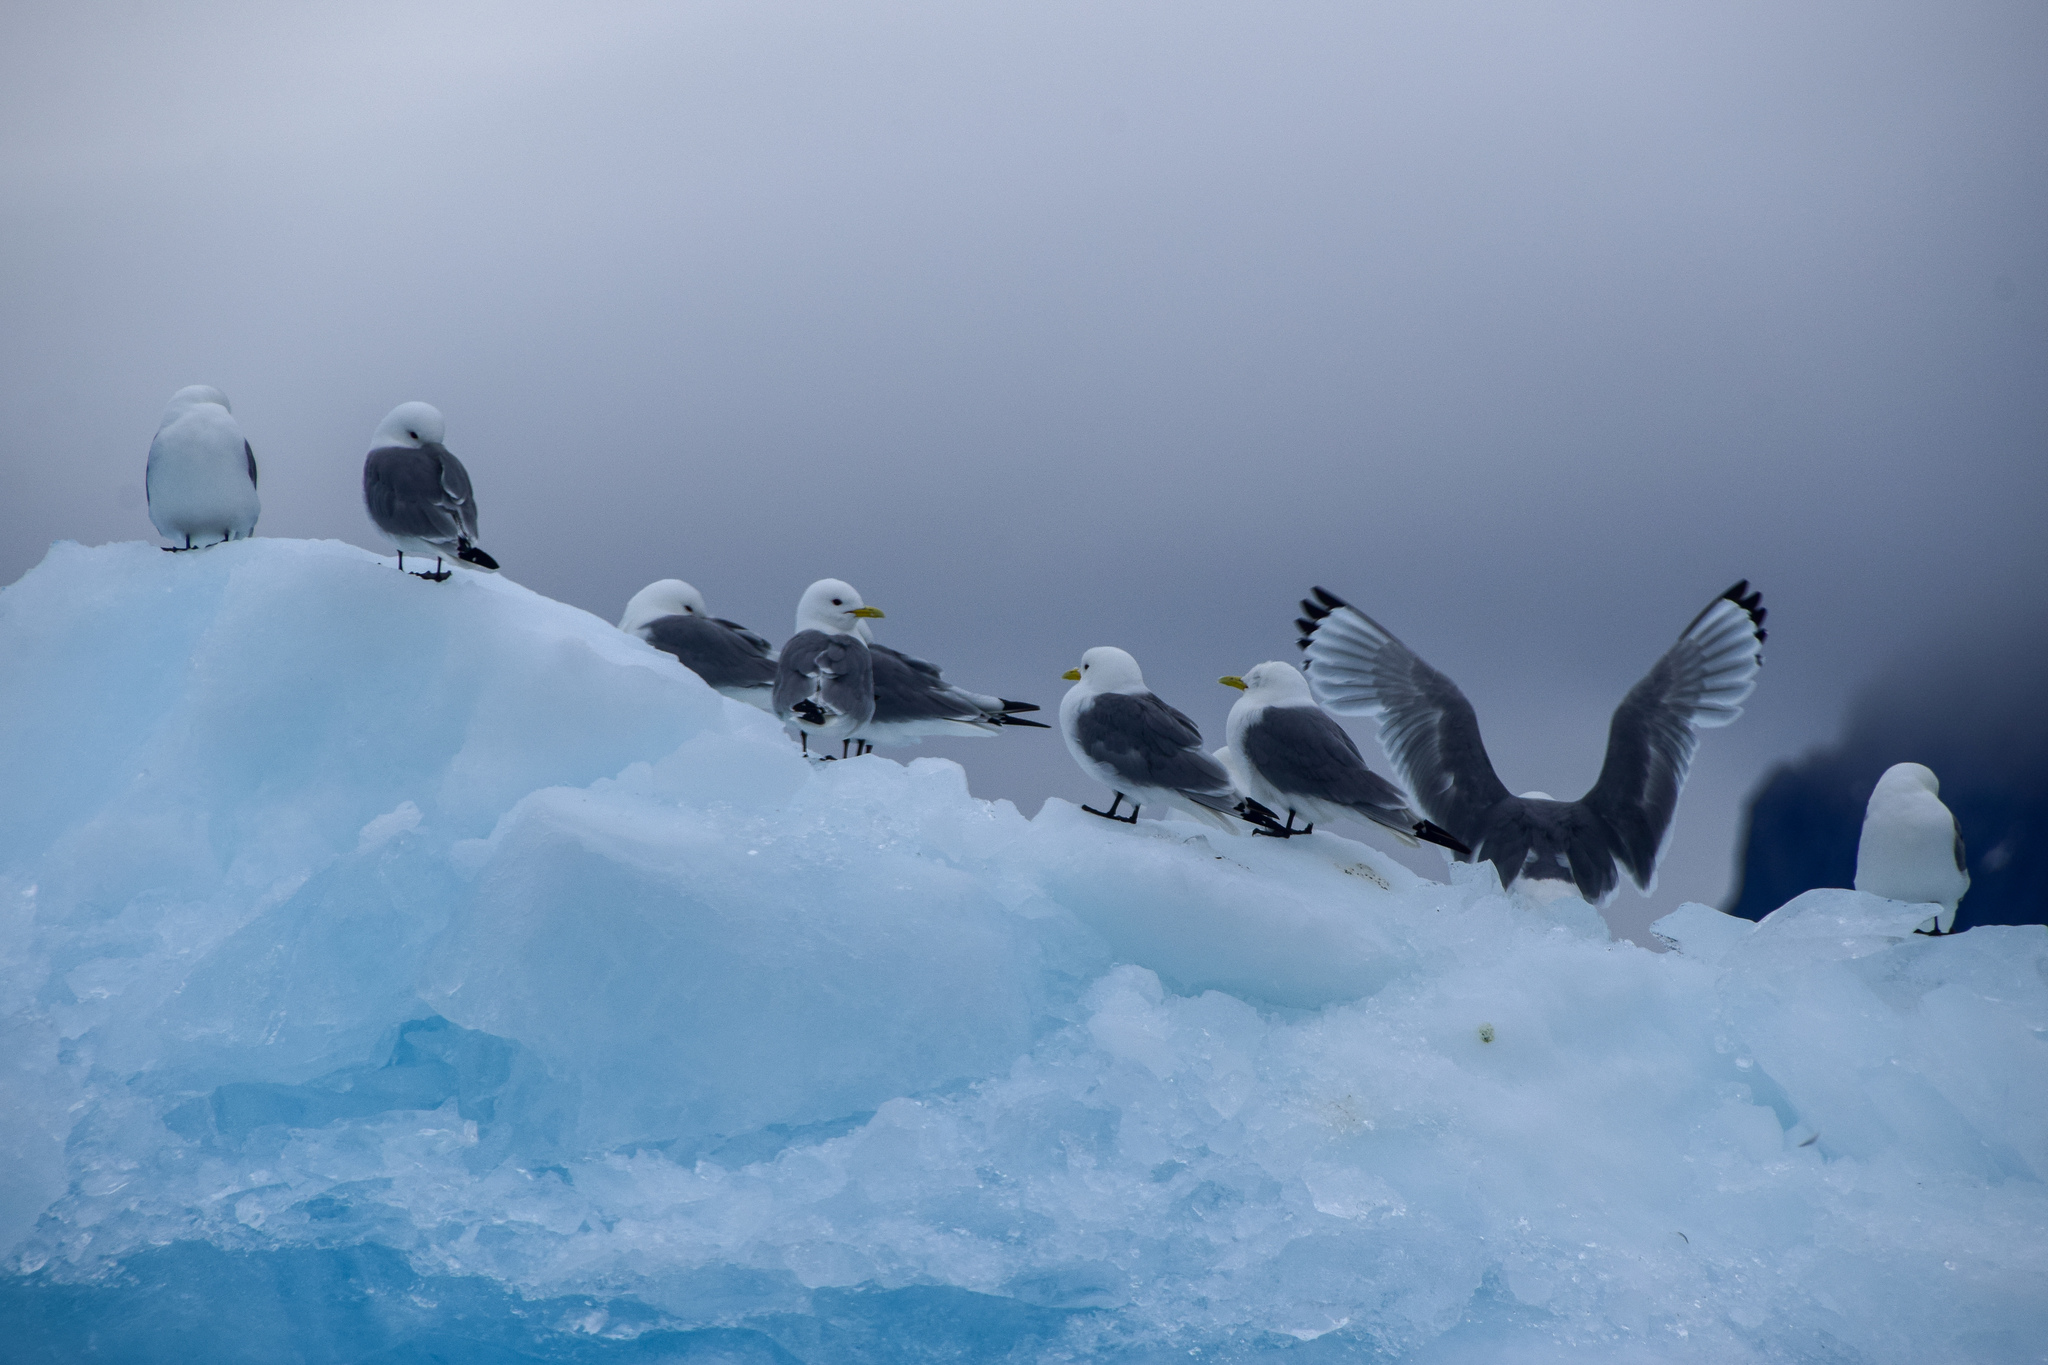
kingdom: Animalia
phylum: Chordata
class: Aves
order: Charadriiformes
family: Laridae
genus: Rissa
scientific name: Rissa tridactyla
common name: Black-legged kittiwake
